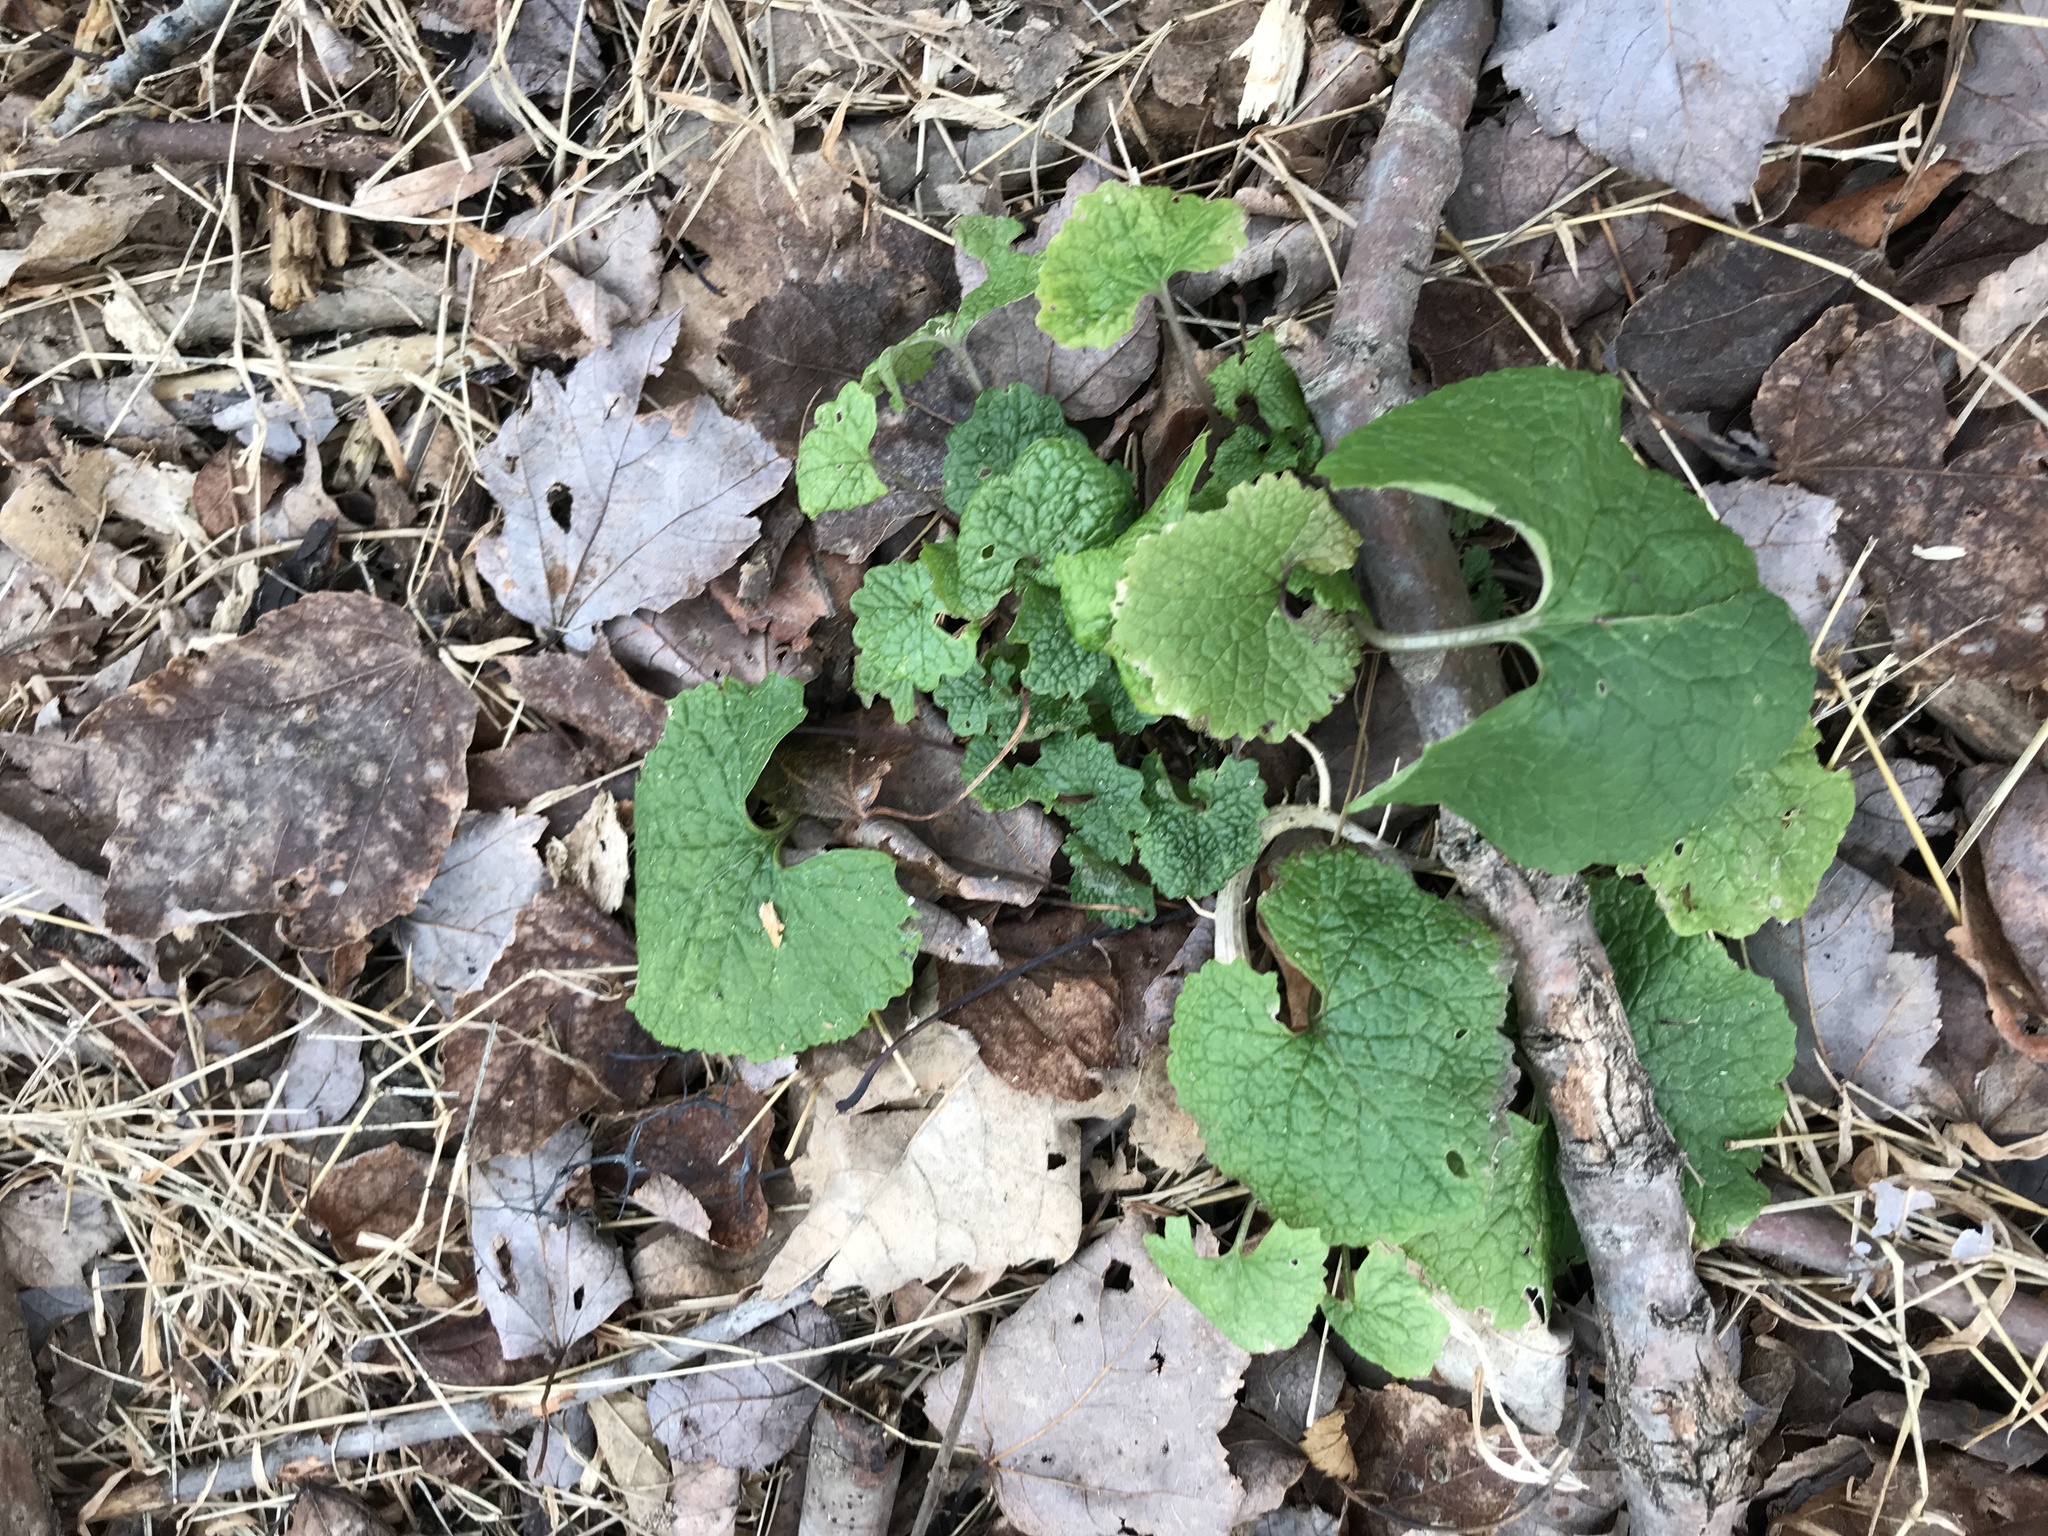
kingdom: Plantae
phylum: Tracheophyta
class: Magnoliopsida
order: Brassicales
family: Brassicaceae
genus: Alliaria
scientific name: Alliaria petiolata
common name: Garlic mustard
